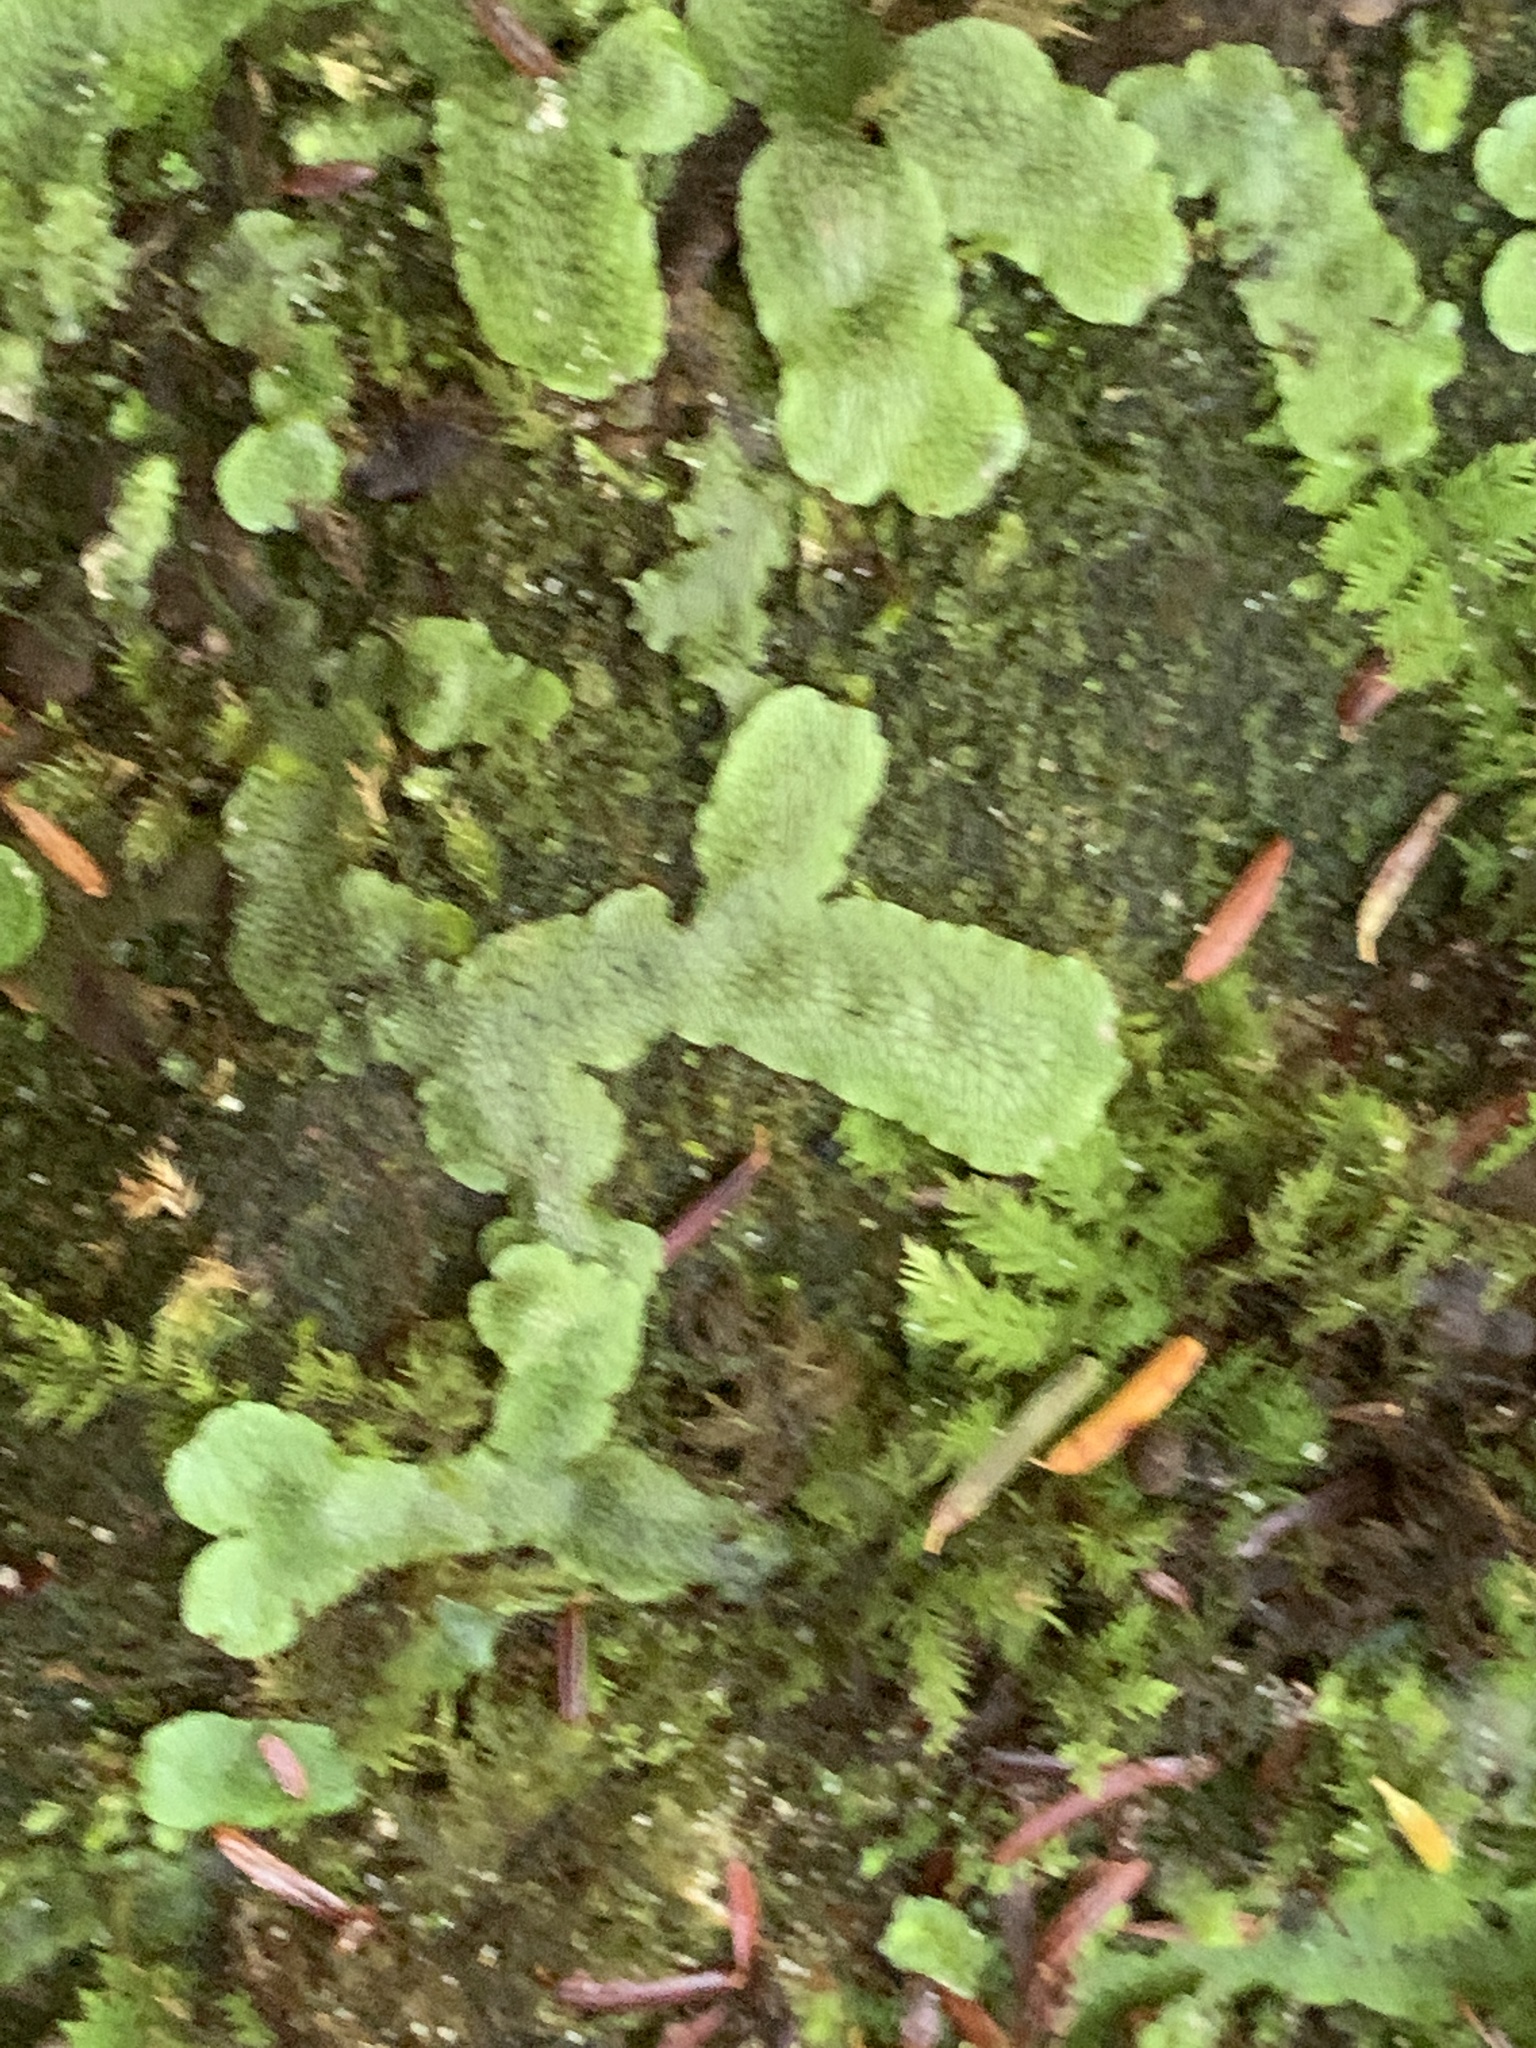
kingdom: Plantae
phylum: Marchantiophyta
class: Marchantiopsida
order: Marchantiales
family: Conocephalaceae
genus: Conocephalum
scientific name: Conocephalum salebrosum
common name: Cat-tongue liverwort
